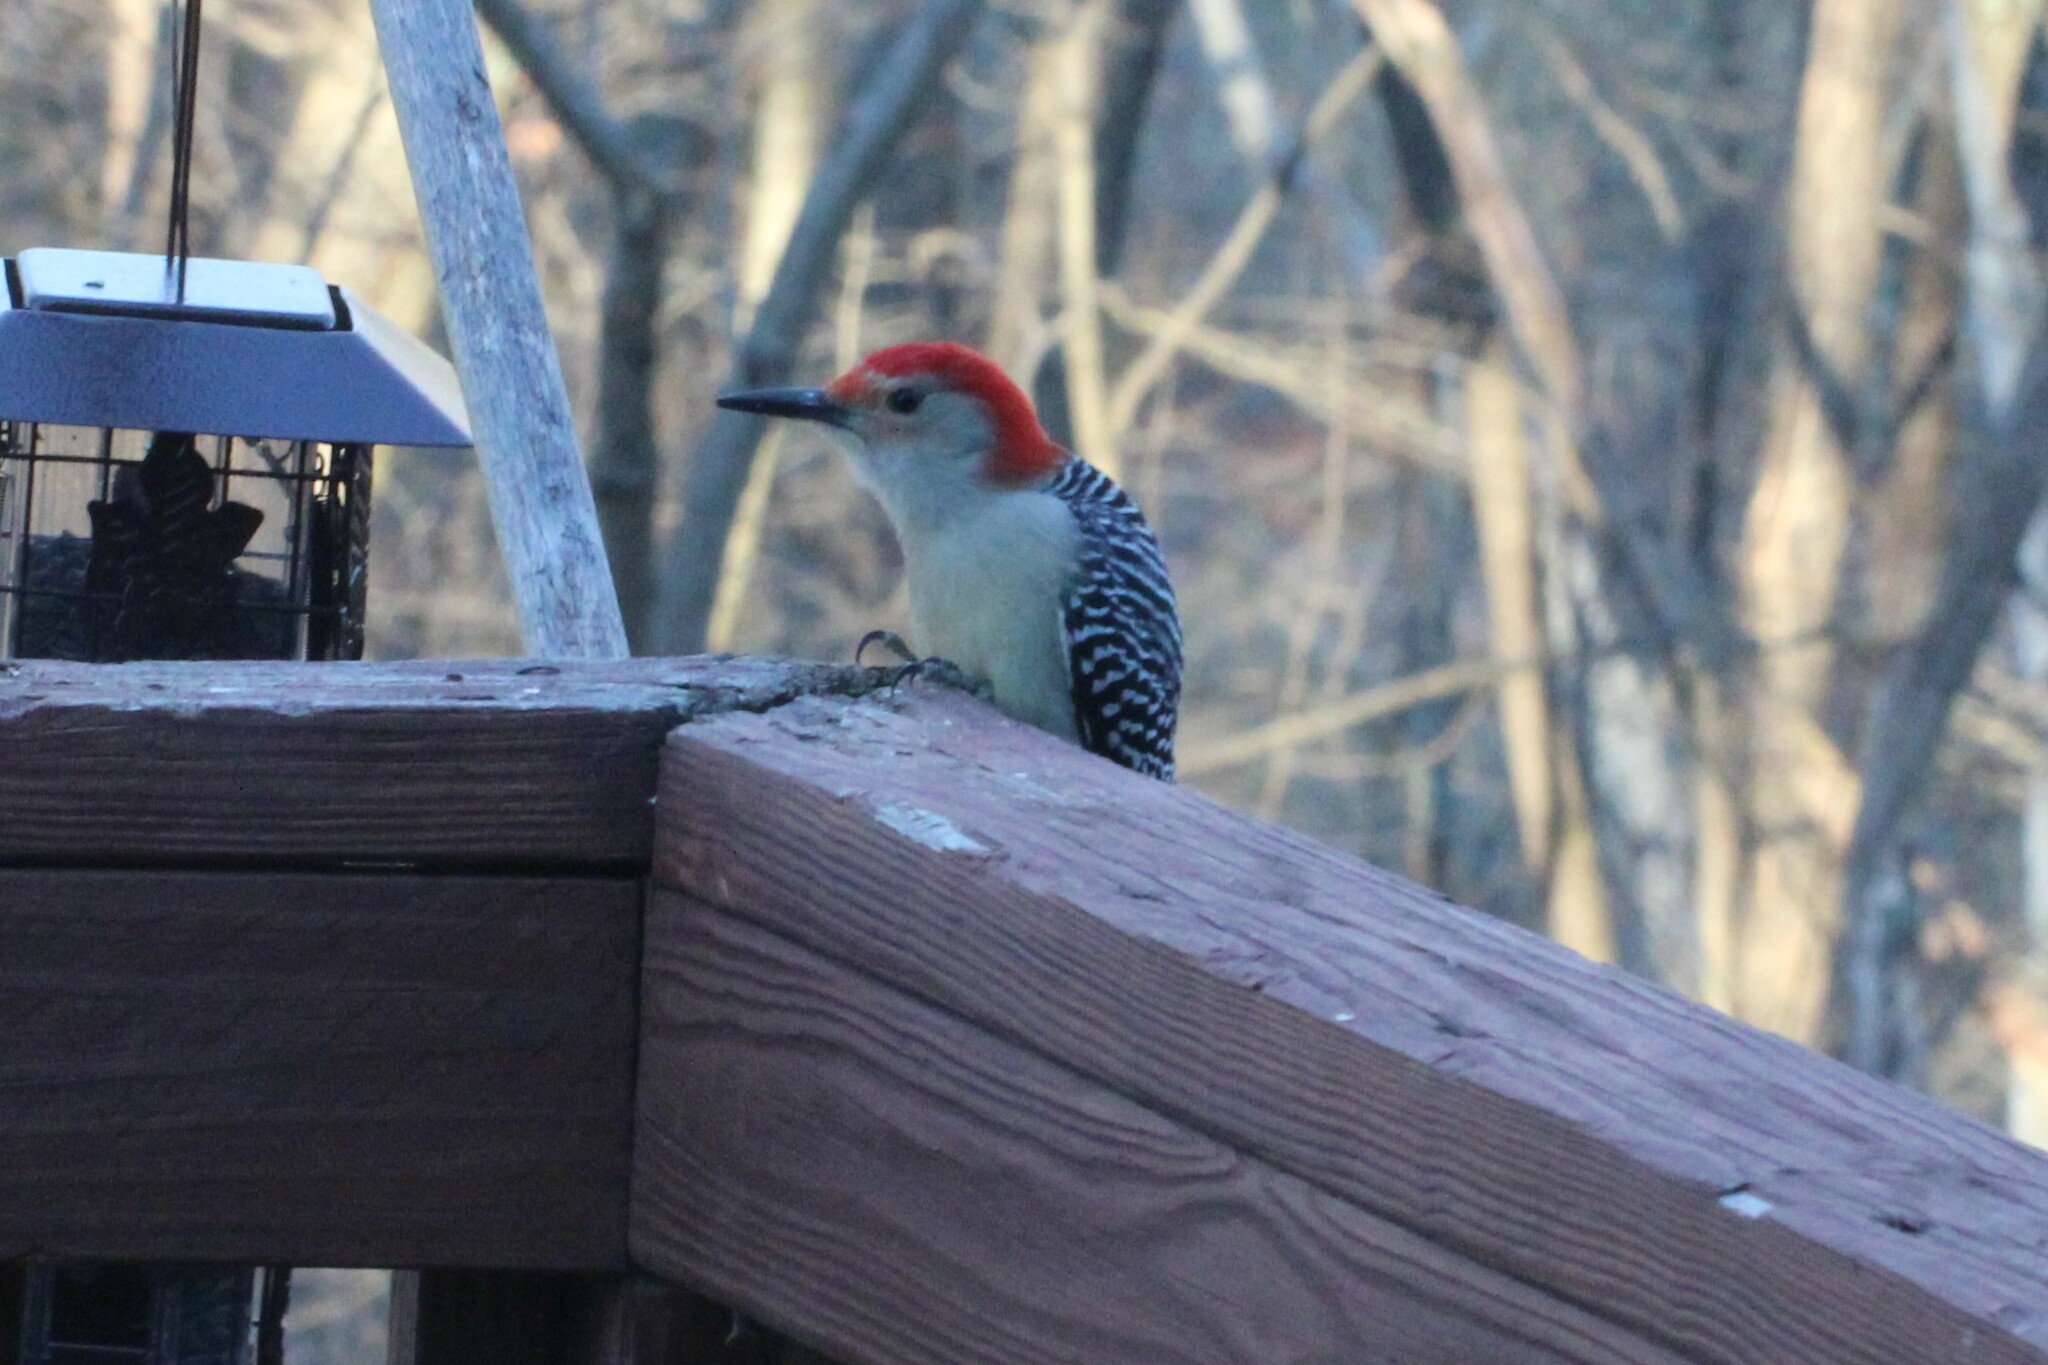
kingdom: Animalia
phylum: Chordata
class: Aves
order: Piciformes
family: Picidae
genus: Melanerpes
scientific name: Melanerpes carolinus
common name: Red-bellied woodpecker
